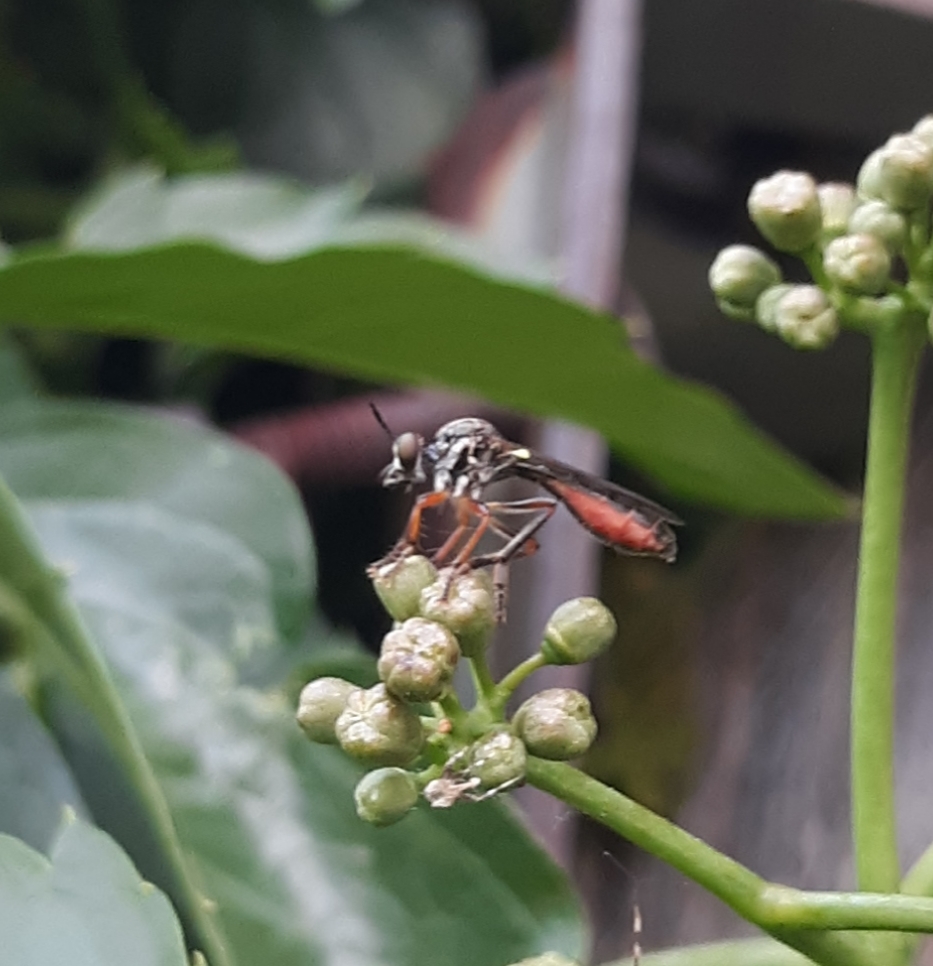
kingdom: Animalia
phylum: Arthropoda
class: Insecta
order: Diptera
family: Asilidae
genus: Dioctria
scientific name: Dioctria hyalipennis
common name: Stripe-legged robberfly
